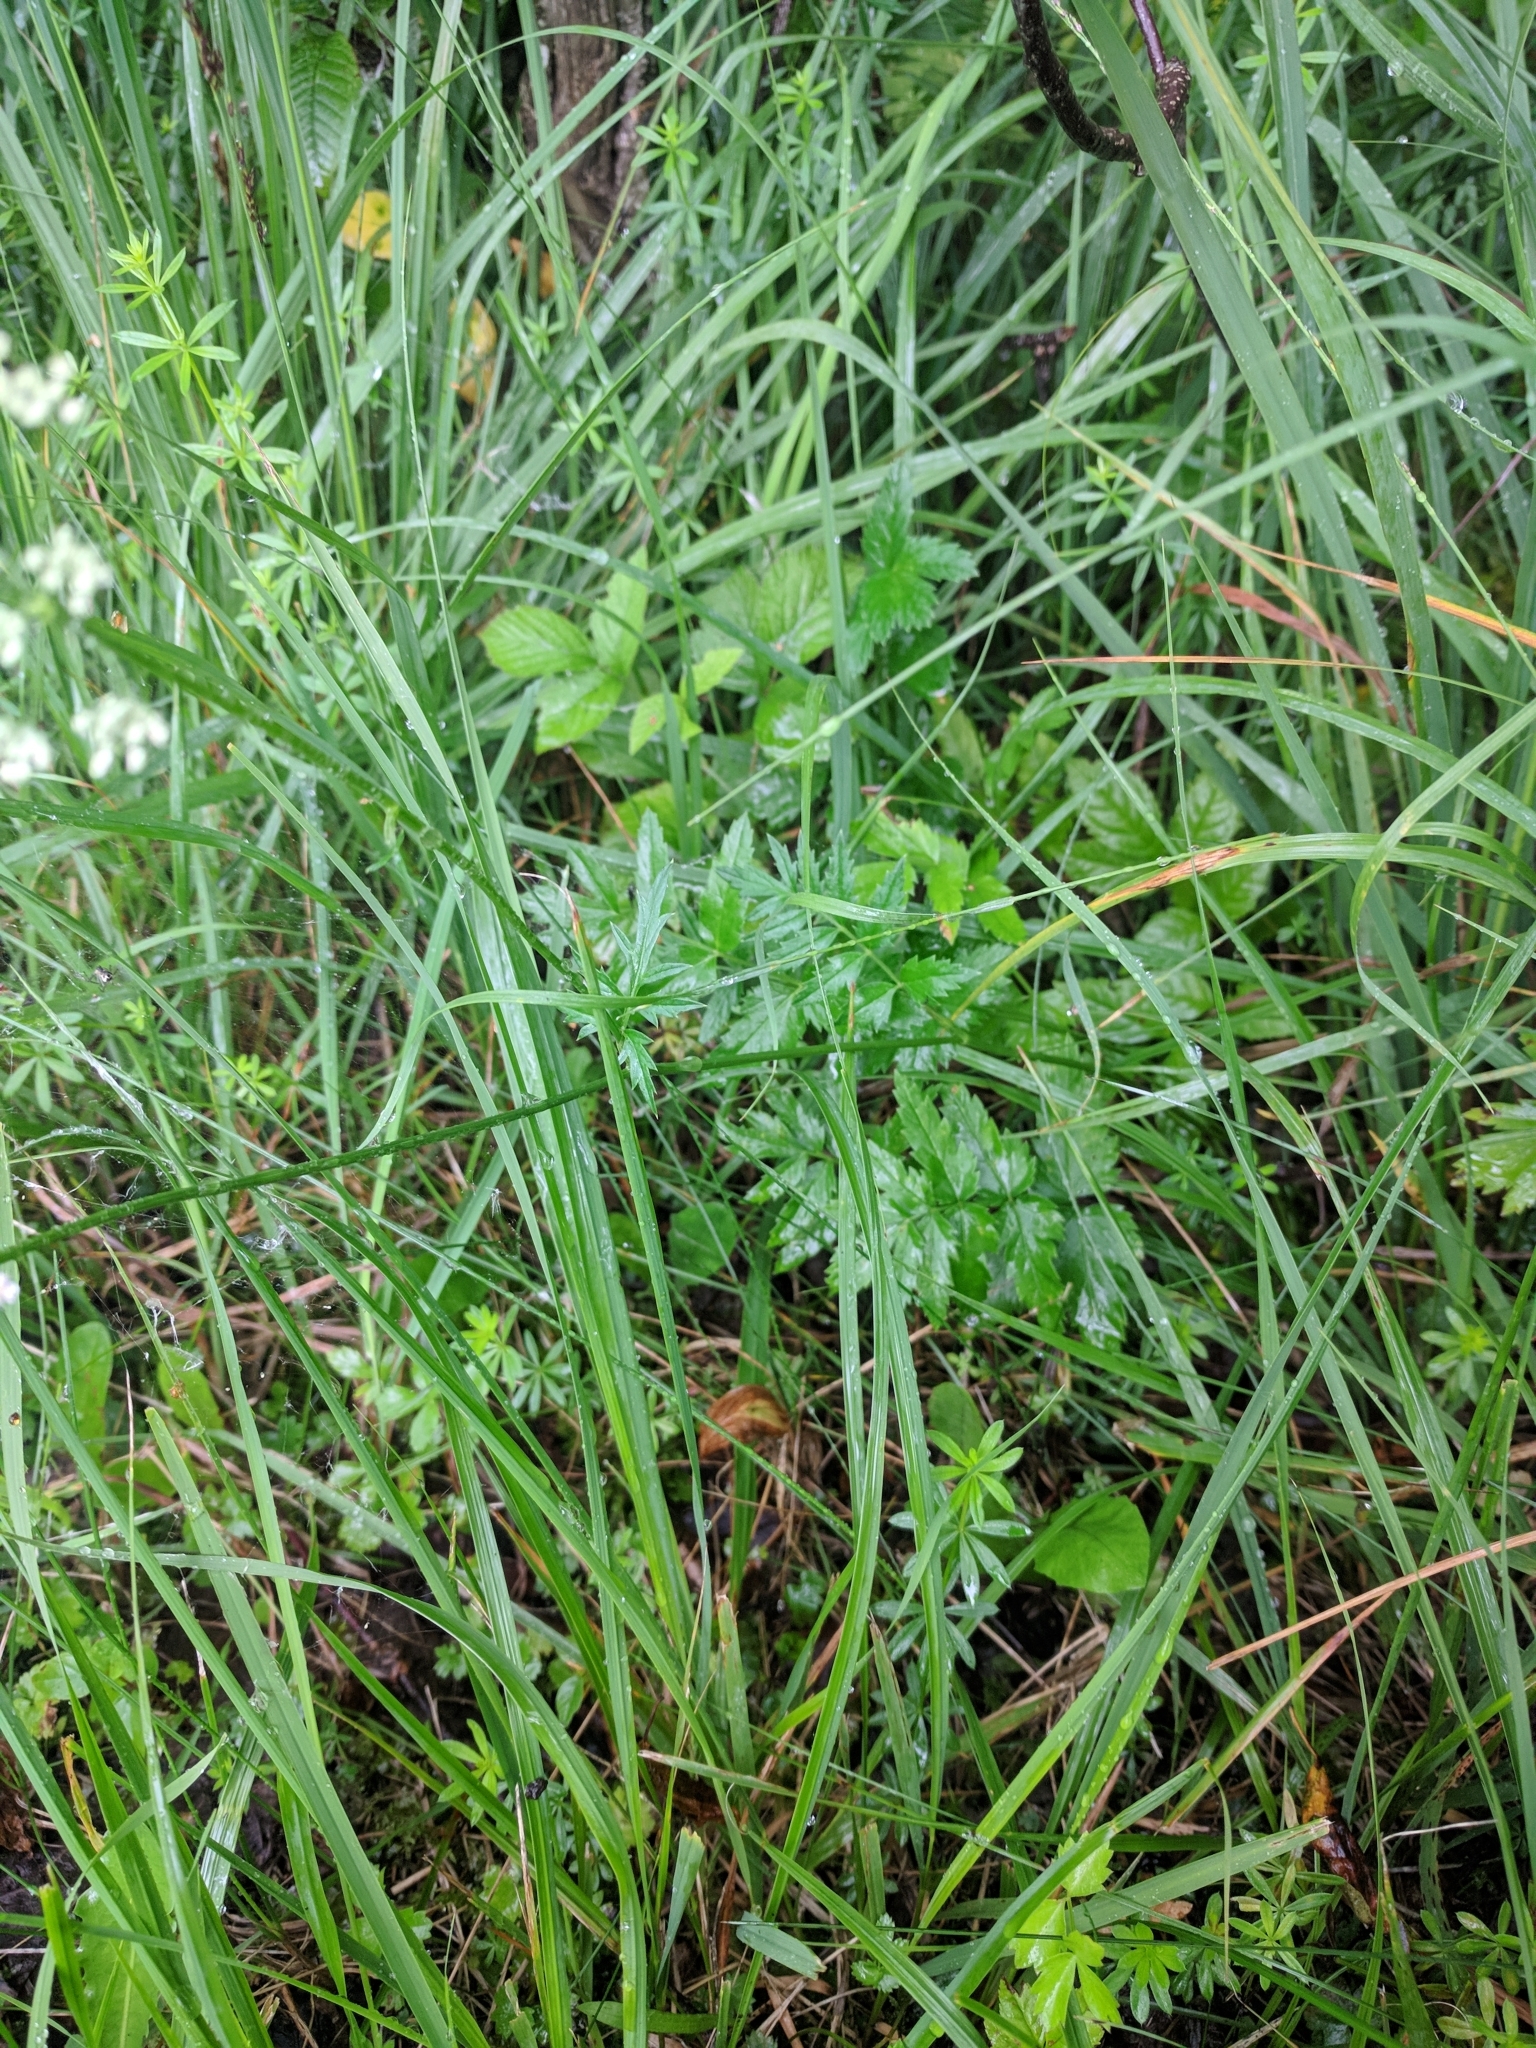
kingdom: Plantae
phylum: Tracheophyta
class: Magnoliopsida
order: Apiales
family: Apiaceae
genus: Pimpinella
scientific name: Pimpinella major
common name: Greater burnet-saxifrage
